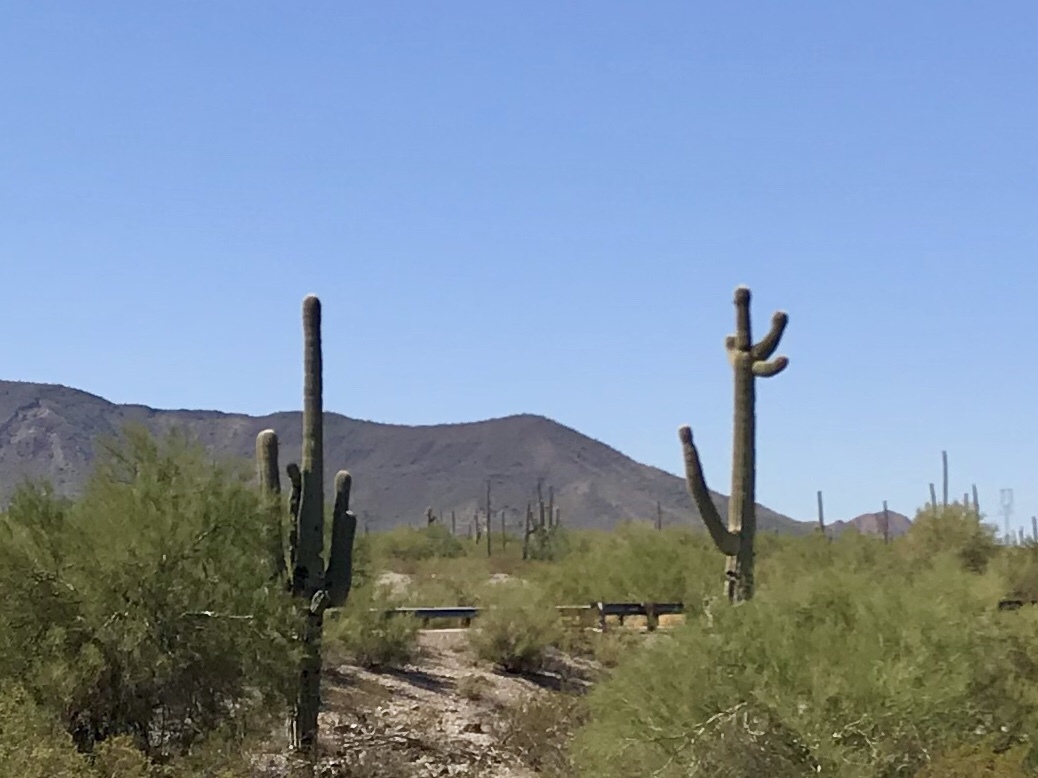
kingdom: Plantae
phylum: Tracheophyta
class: Magnoliopsida
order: Caryophyllales
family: Cactaceae
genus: Carnegiea
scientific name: Carnegiea gigantea
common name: Saguaro
